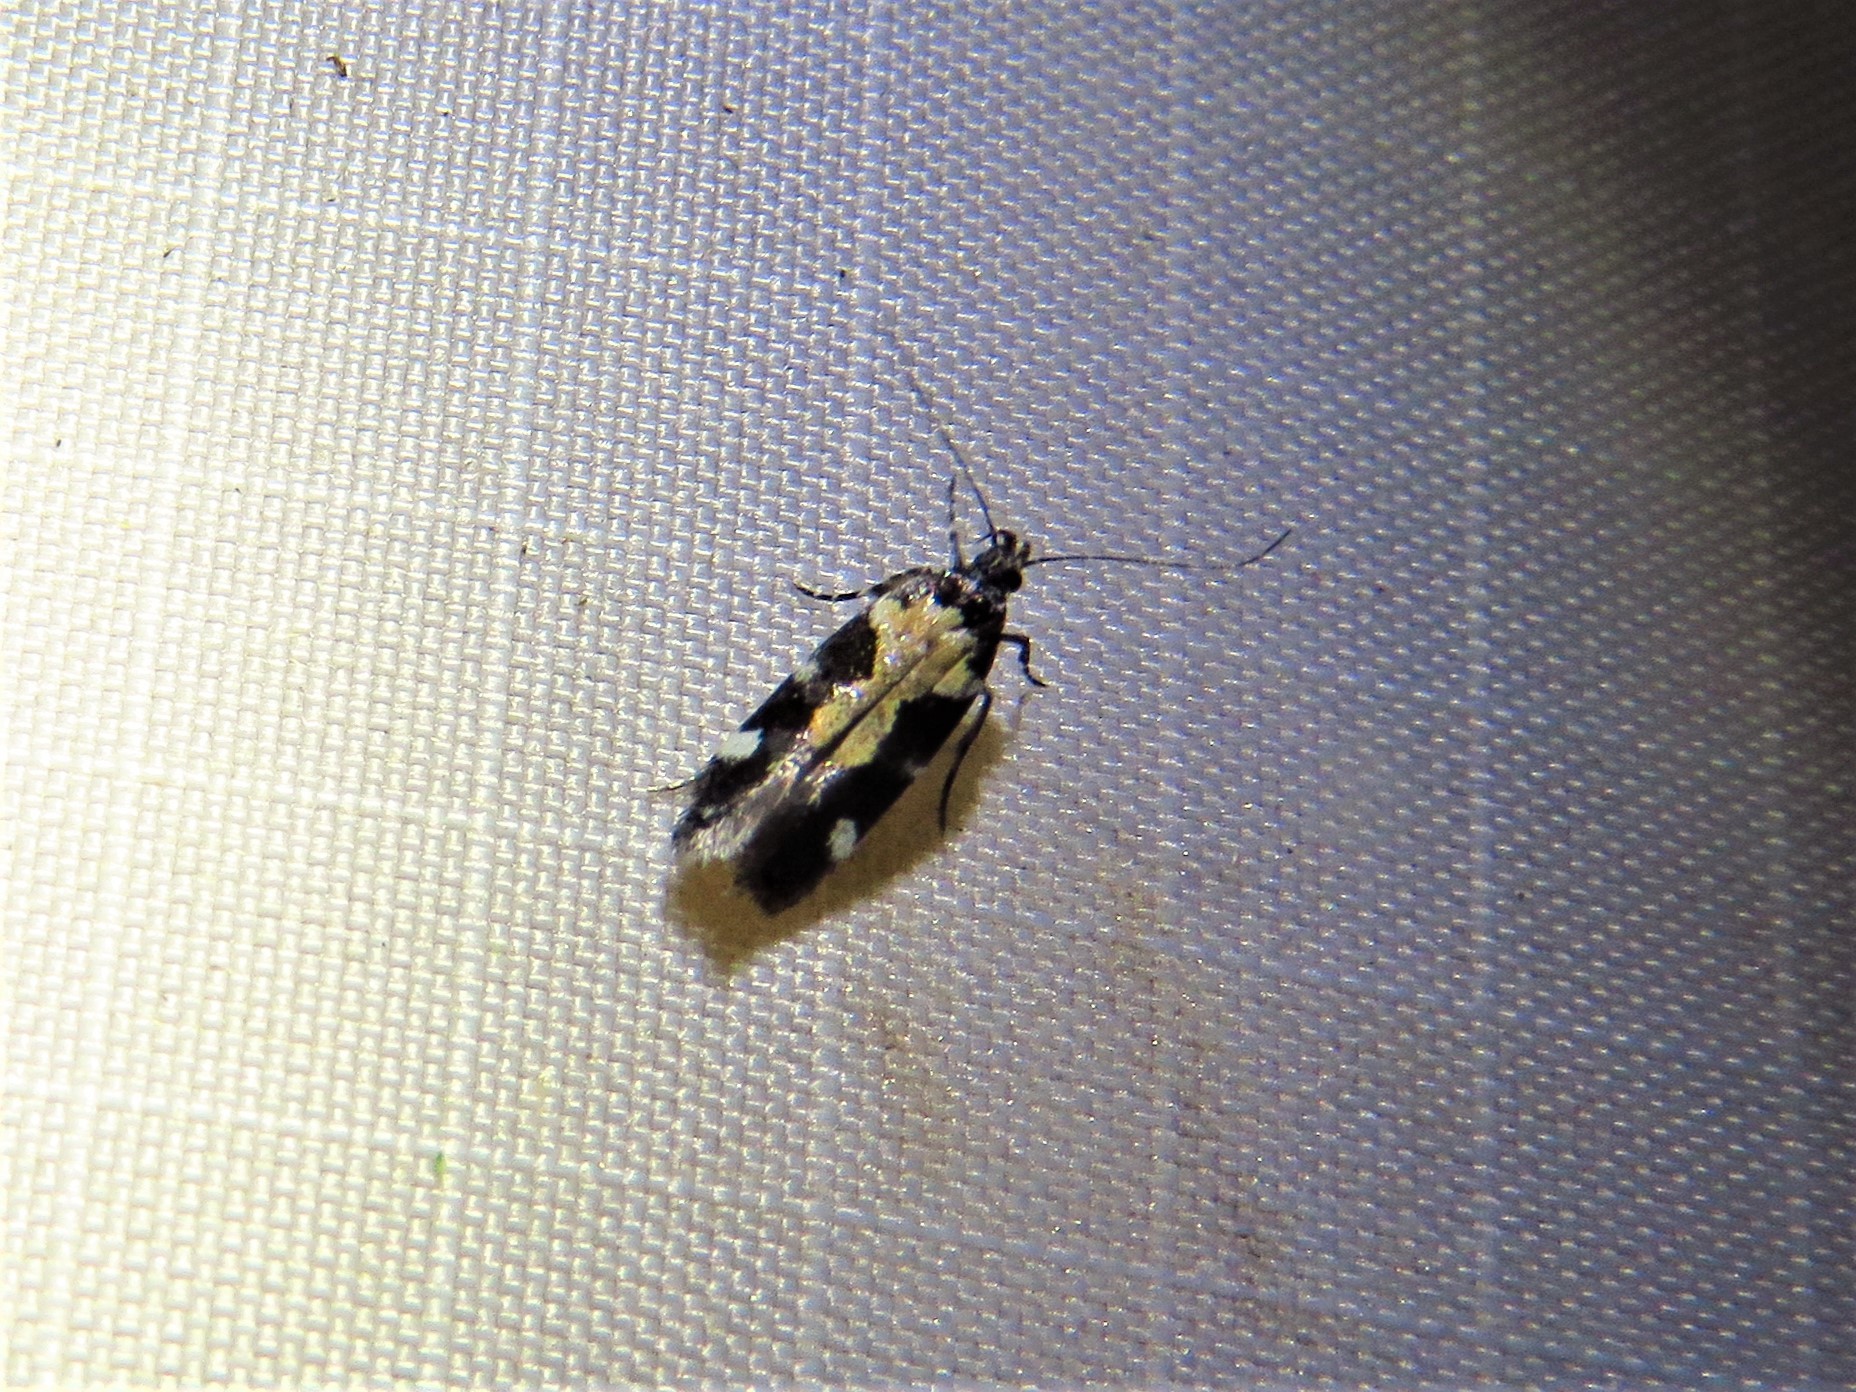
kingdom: Animalia
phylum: Arthropoda
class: Insecta
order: Lepidoptera
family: Gelechiidae
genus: Stegasta
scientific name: Stegasta bosqueella
